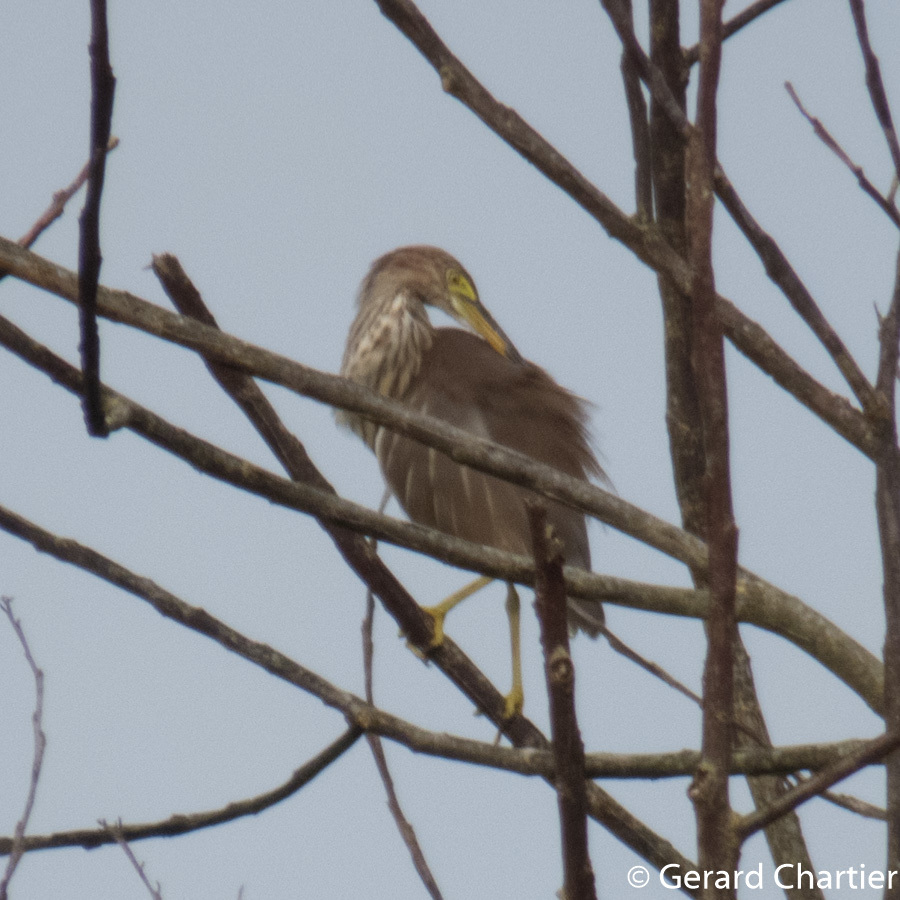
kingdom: Animalia
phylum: Chordata
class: Aves
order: Pelecaniformes
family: Ardeidae
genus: Ardeola
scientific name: Ardeola
